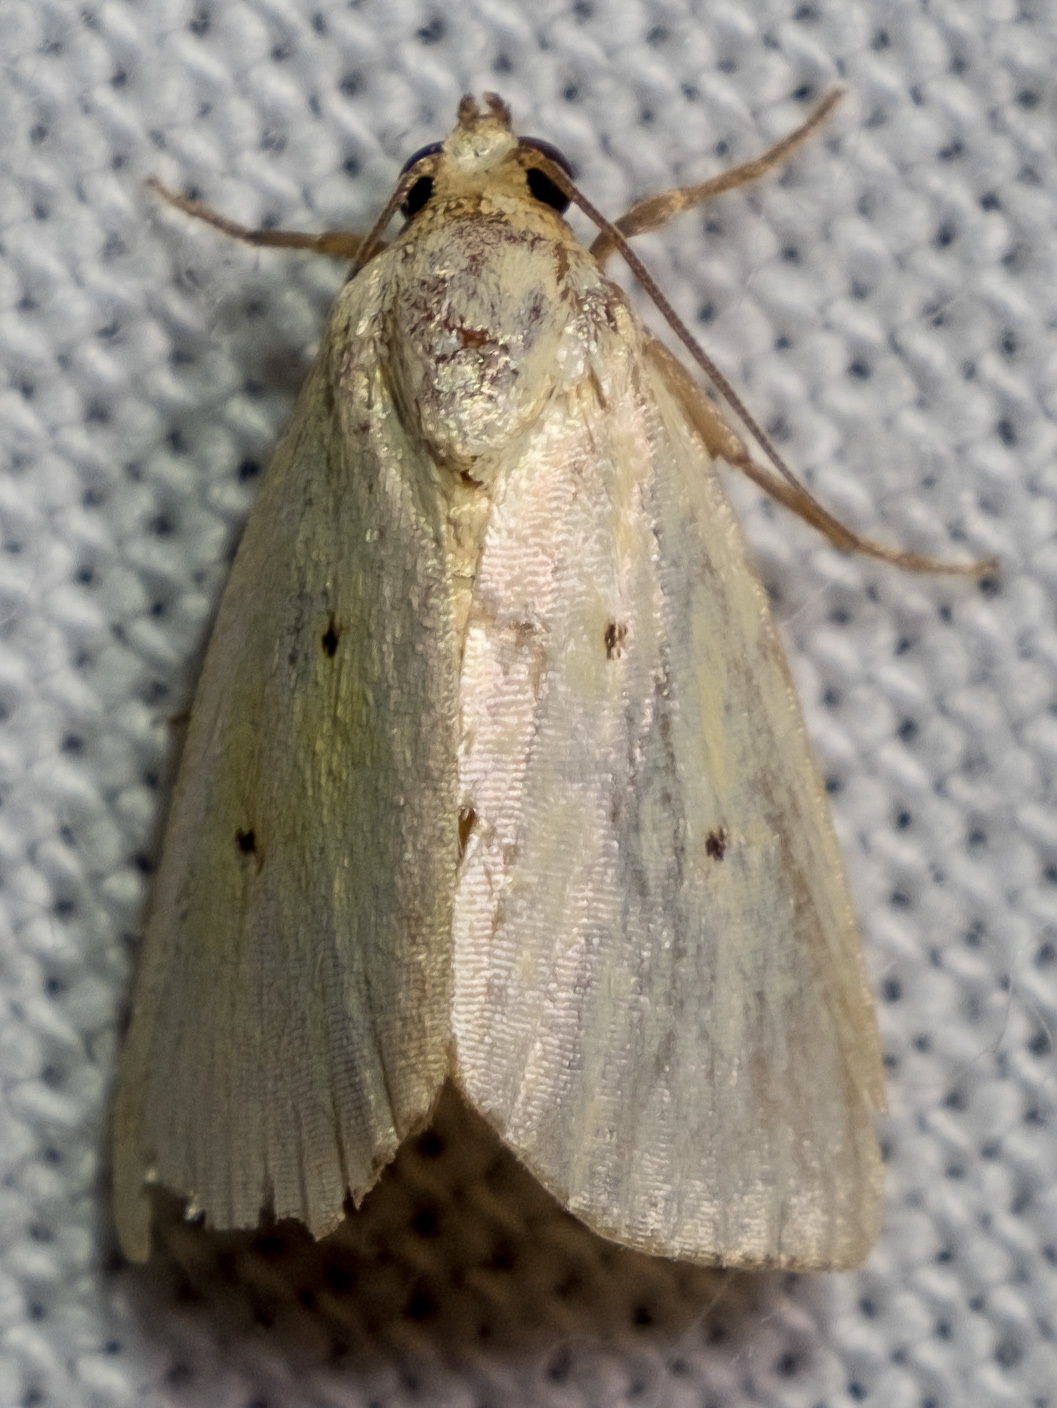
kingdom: Animalia
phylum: Arthropoda
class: Insecta
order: Lepidoptera
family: Noctuidae
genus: Marimatha
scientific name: Marimatha nigrofimbria
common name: Black-bordered lemon moth
